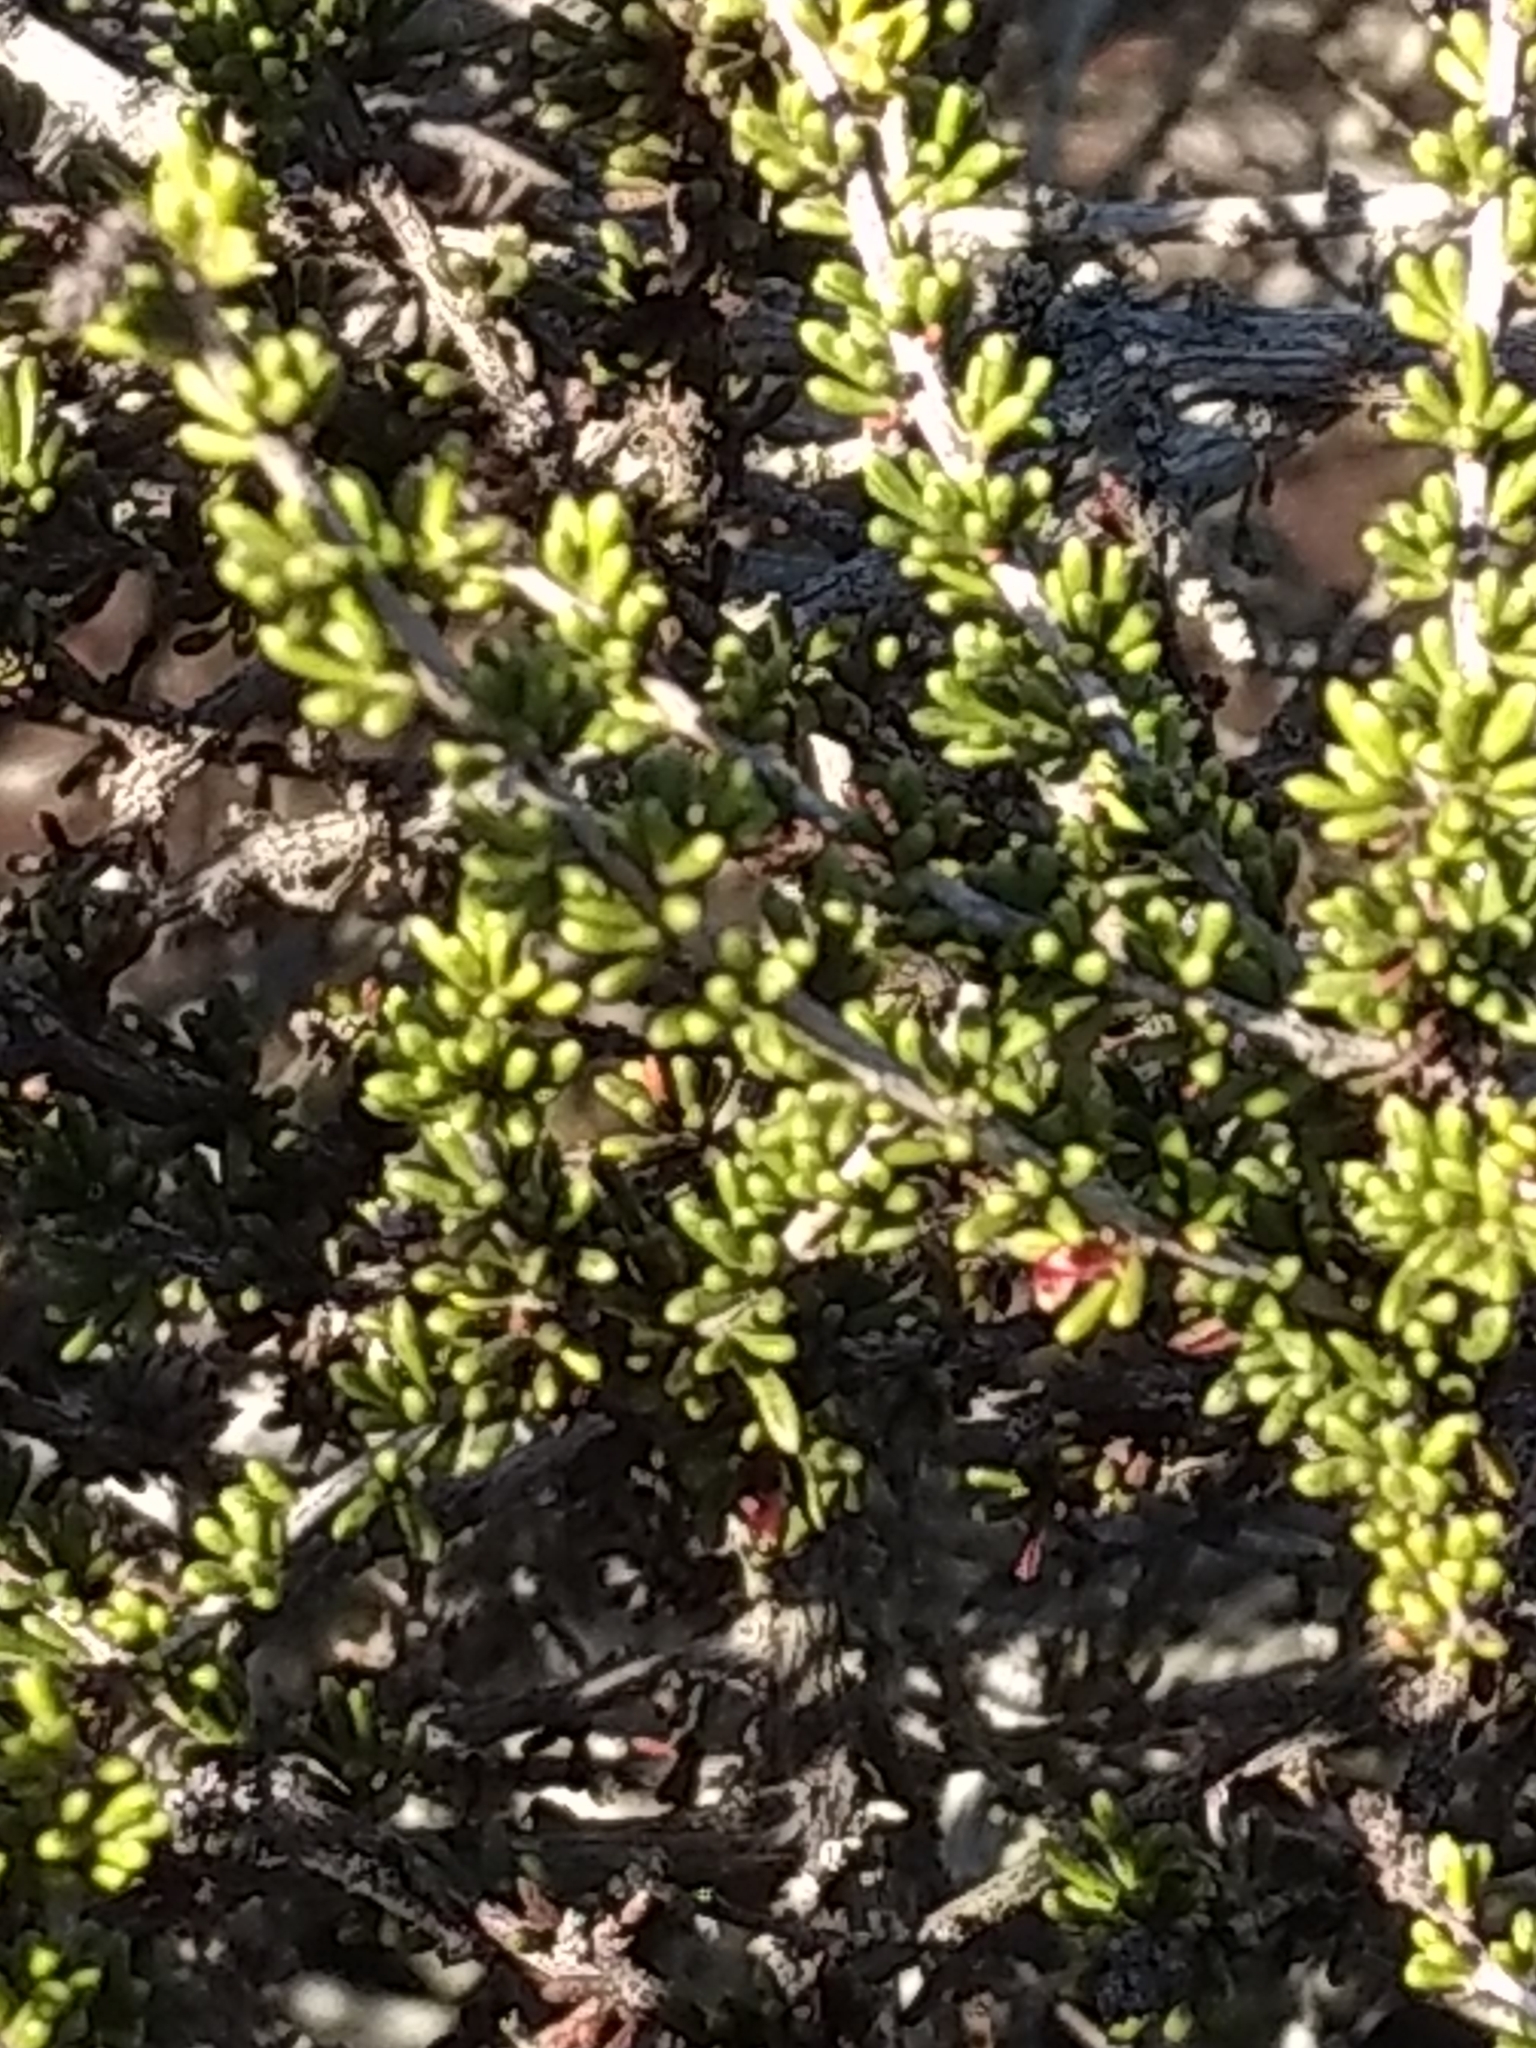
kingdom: Plantae
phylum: Tracheophyta
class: Magnoliopsida
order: Rosales
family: Rosaceae
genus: Adenostoma
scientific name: Adenostoma fasciculatum
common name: Chamise
